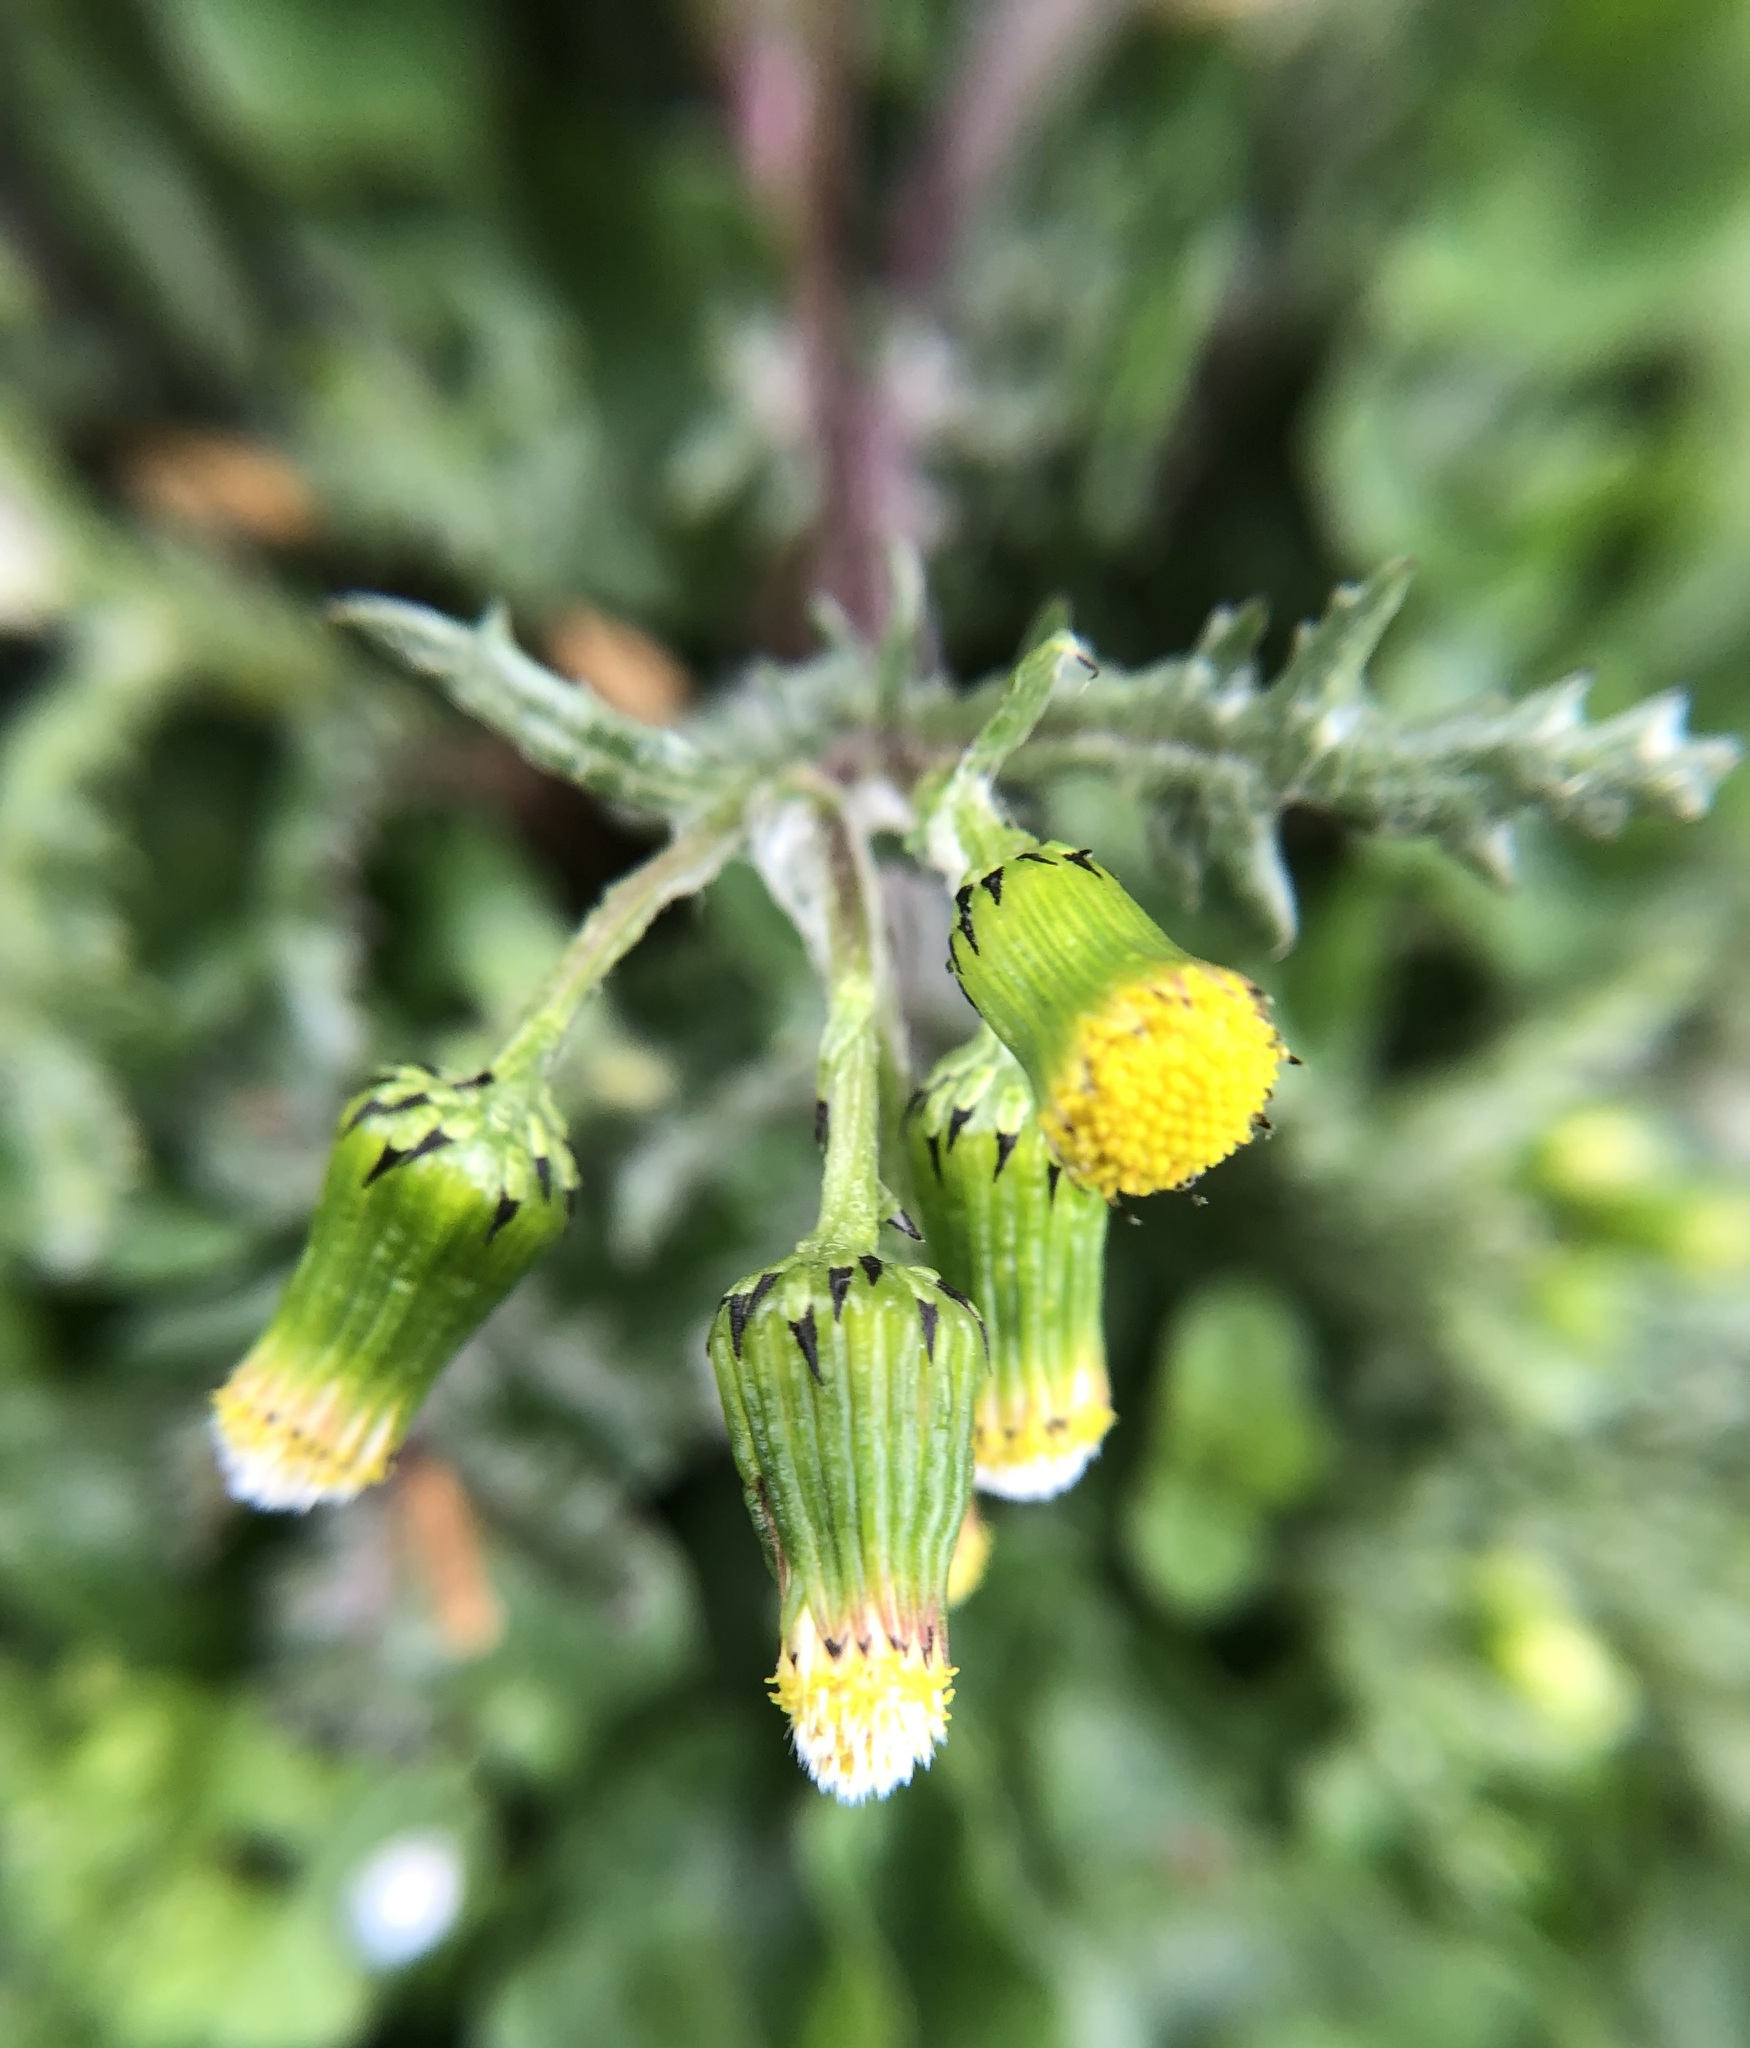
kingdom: Plantae
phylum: Tracheophyta
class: Magnoliopsida
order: Asterales
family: Asteraceae
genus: Senecio
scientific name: Senecio vulgaris
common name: Old-man-in-the-spring
